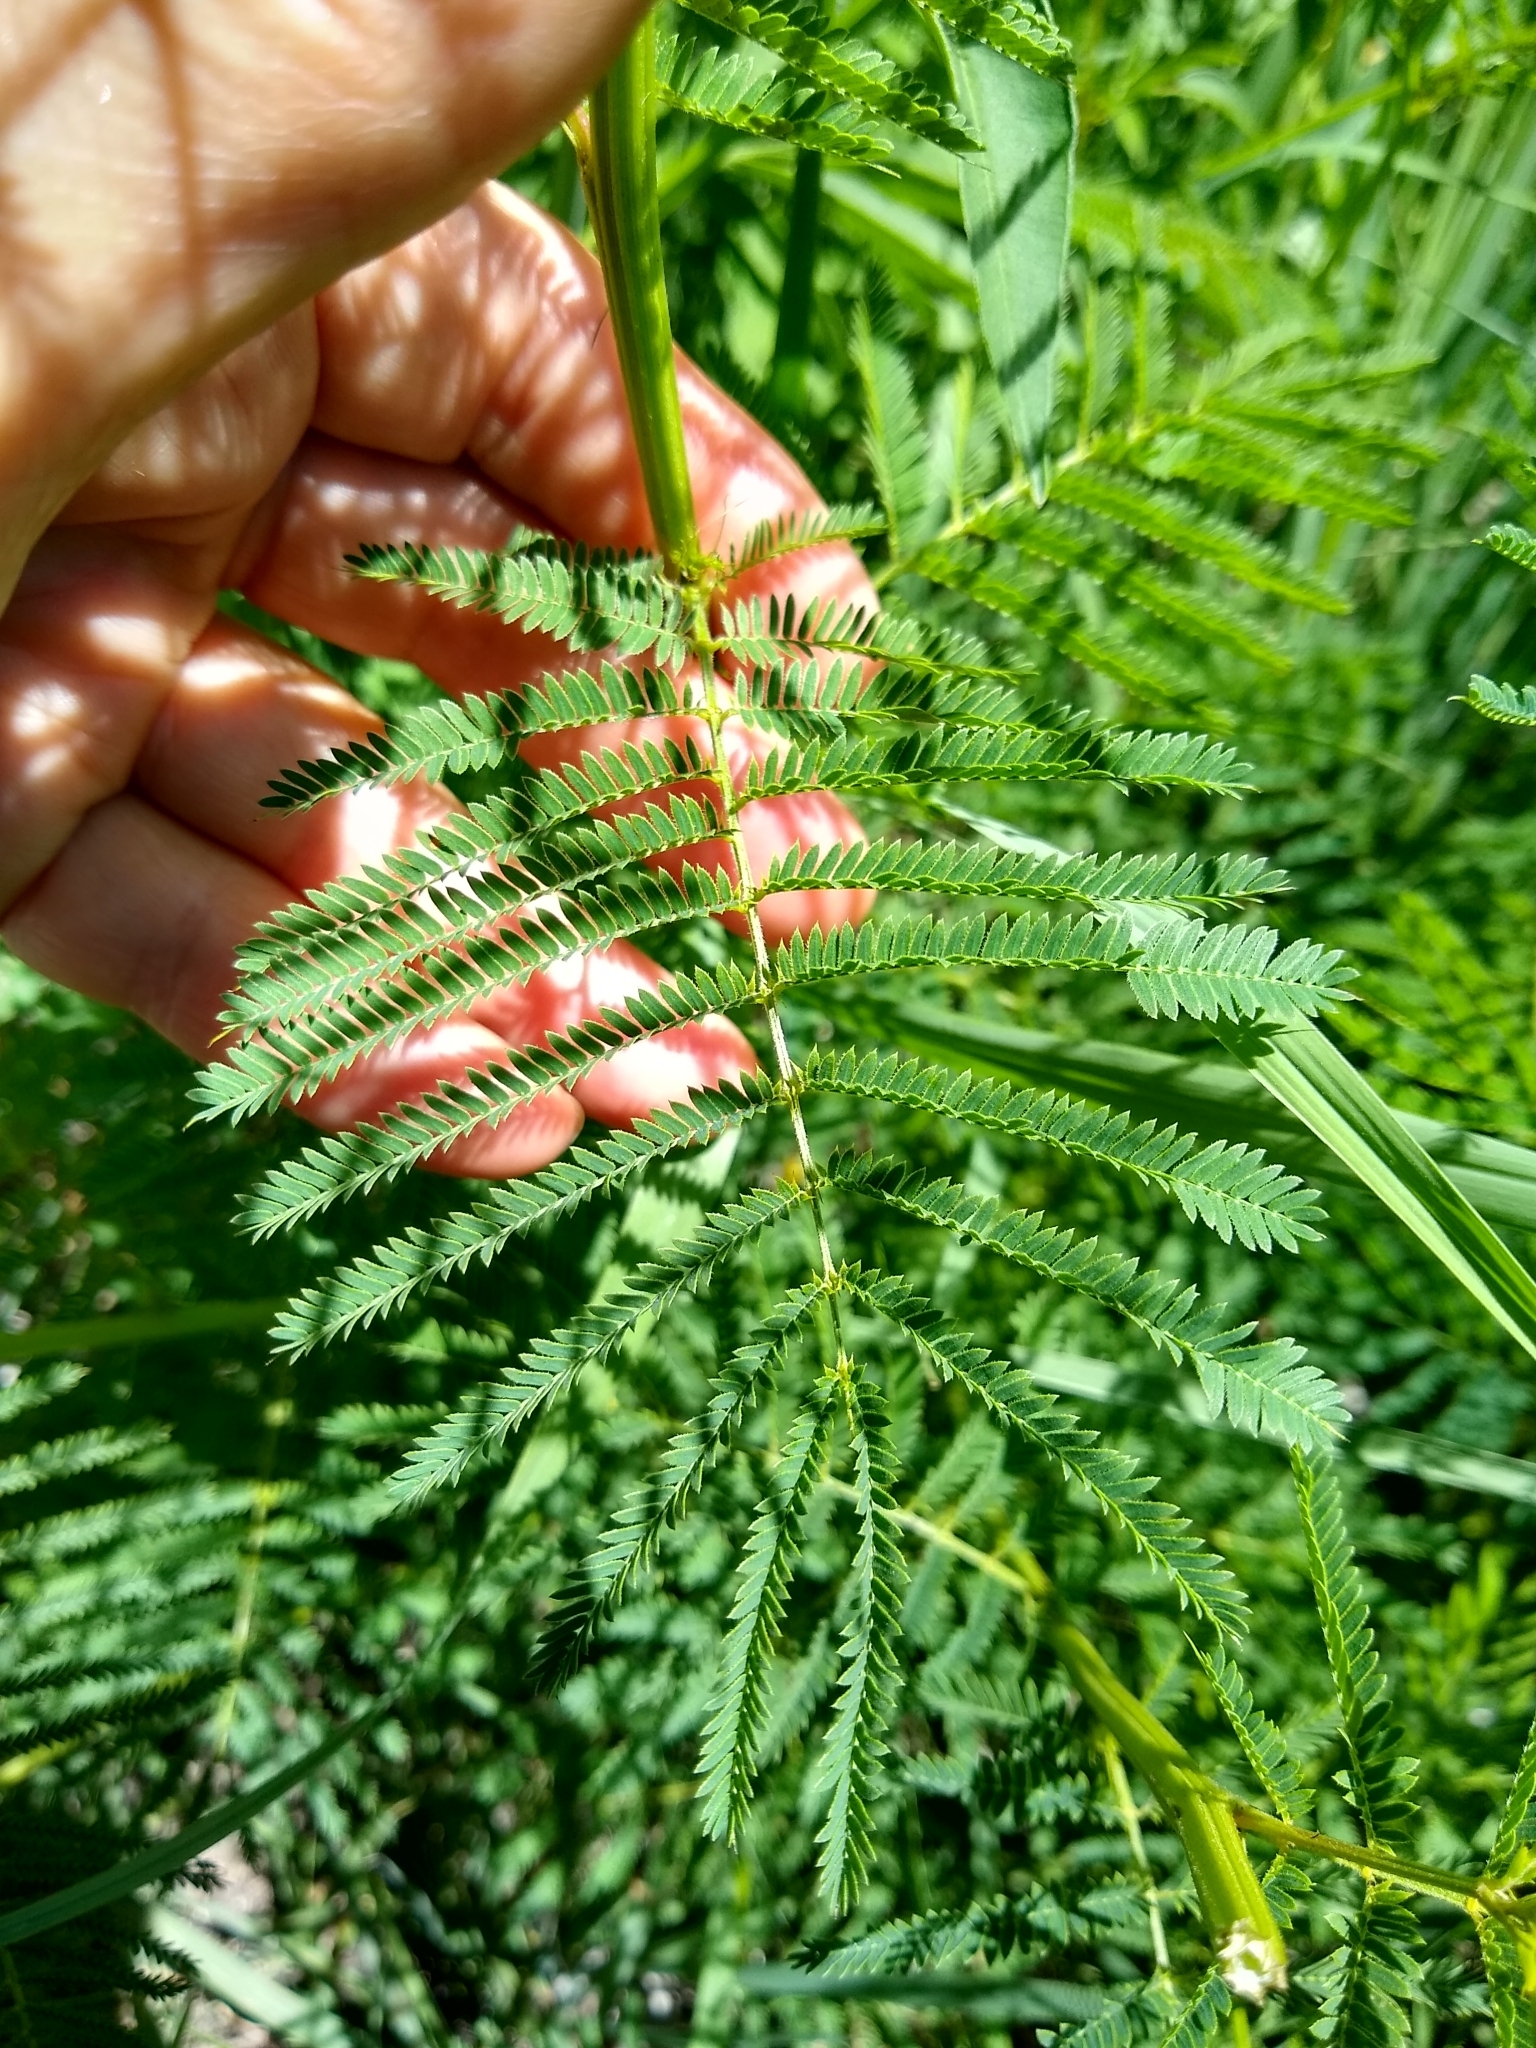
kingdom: Plantae
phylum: Tracheophyta
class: Magnoliopsida
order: Fabales
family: Fabaceae
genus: Desmanthus
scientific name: Desmanthus illinoensis
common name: Illinois bundle-flower
